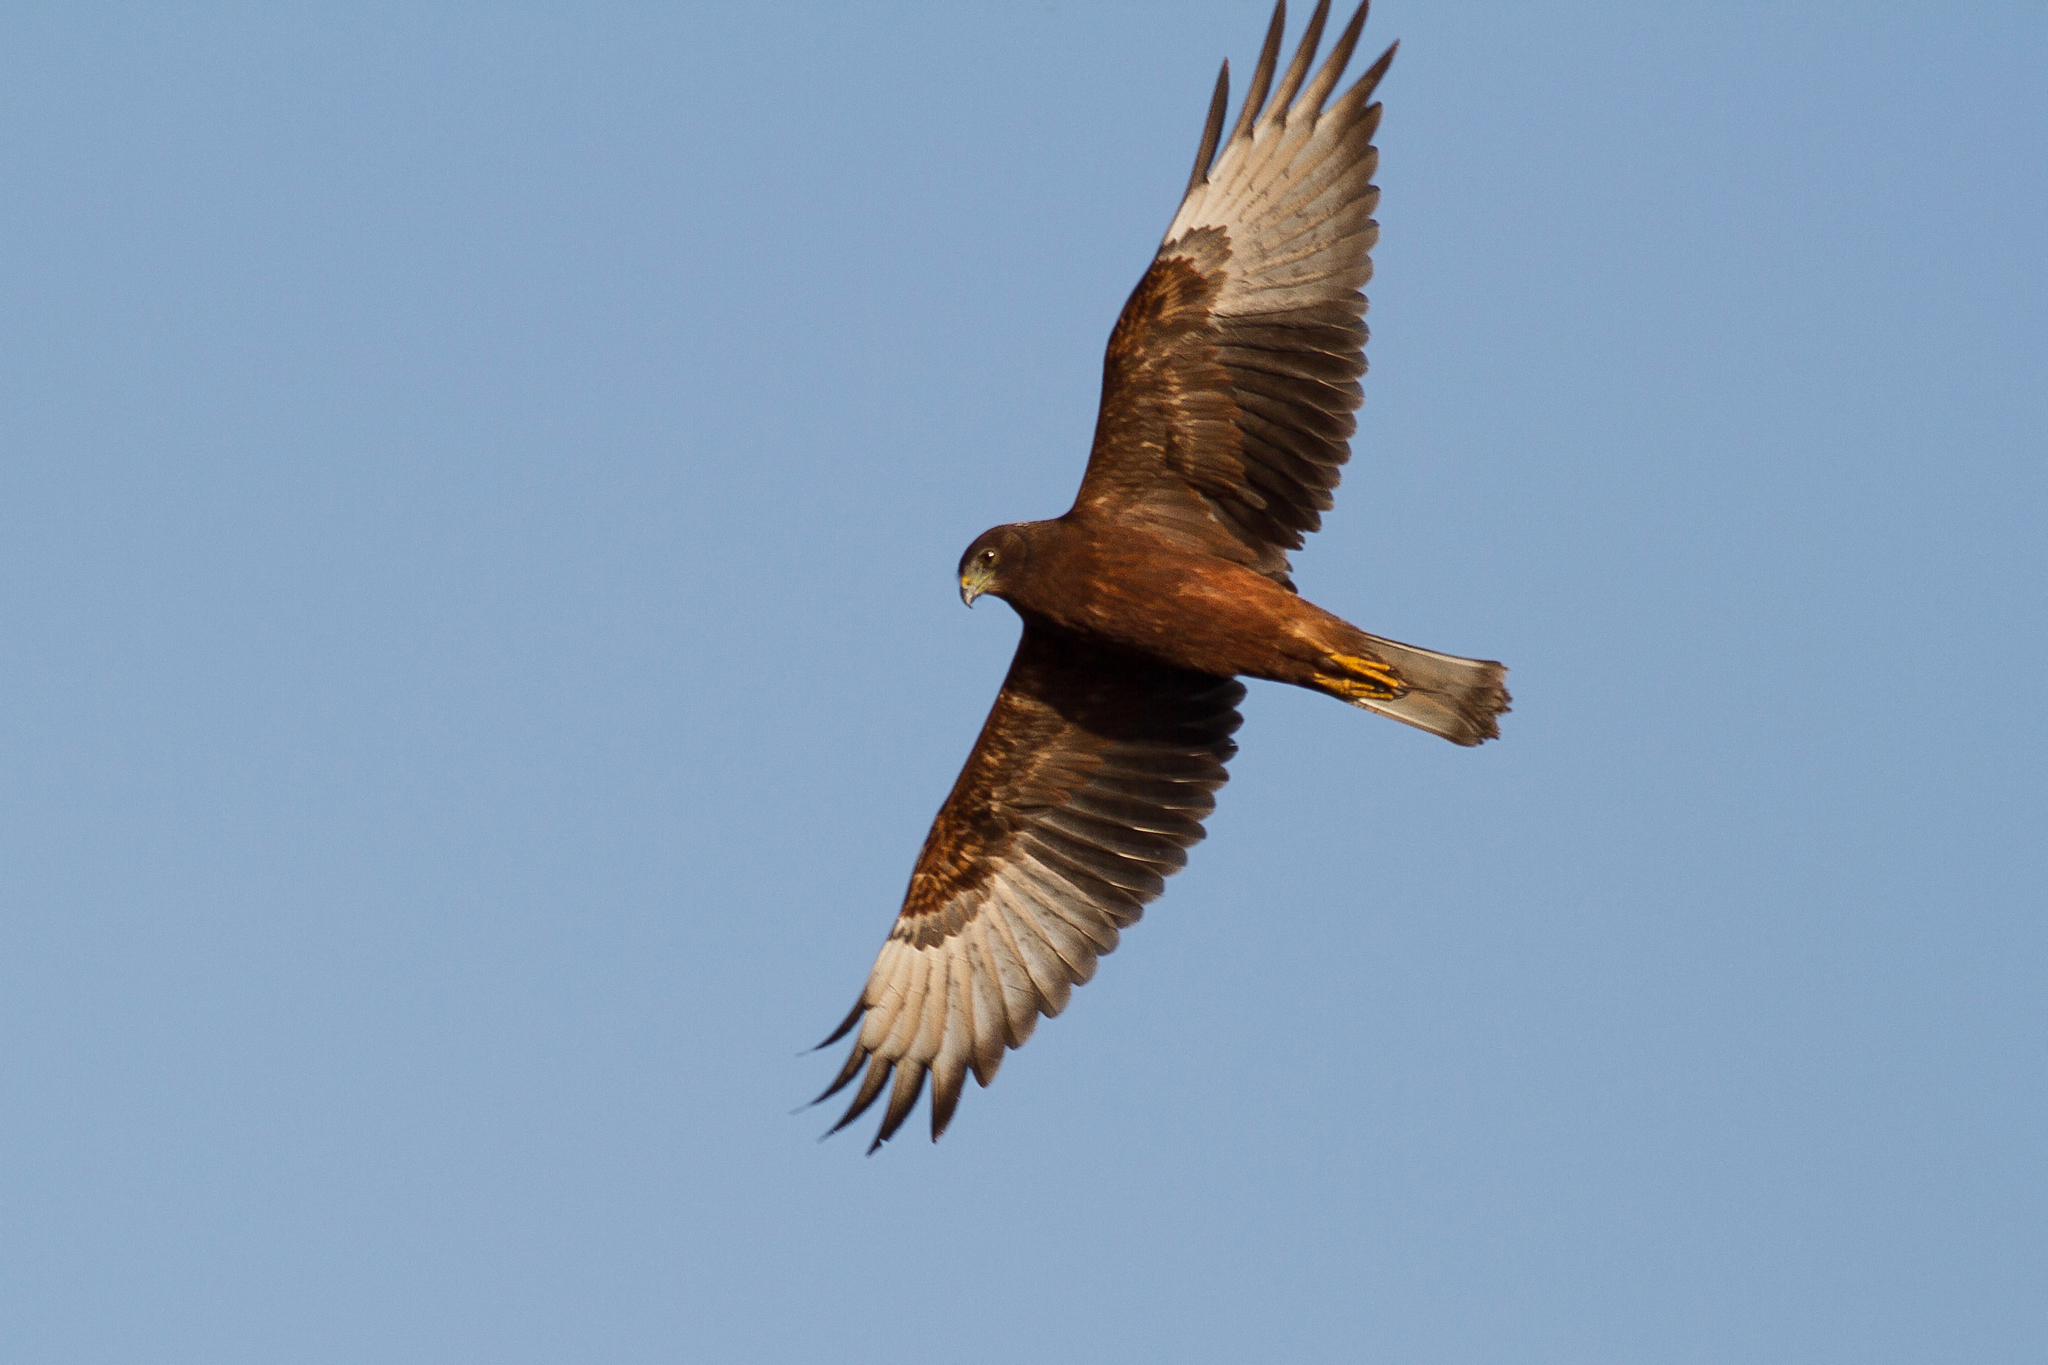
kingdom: Animalia
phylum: Chordata
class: Aves
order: Accipitriformes
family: Accipitridae
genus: Circus
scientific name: Circus approximans
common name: Swamp harrier
